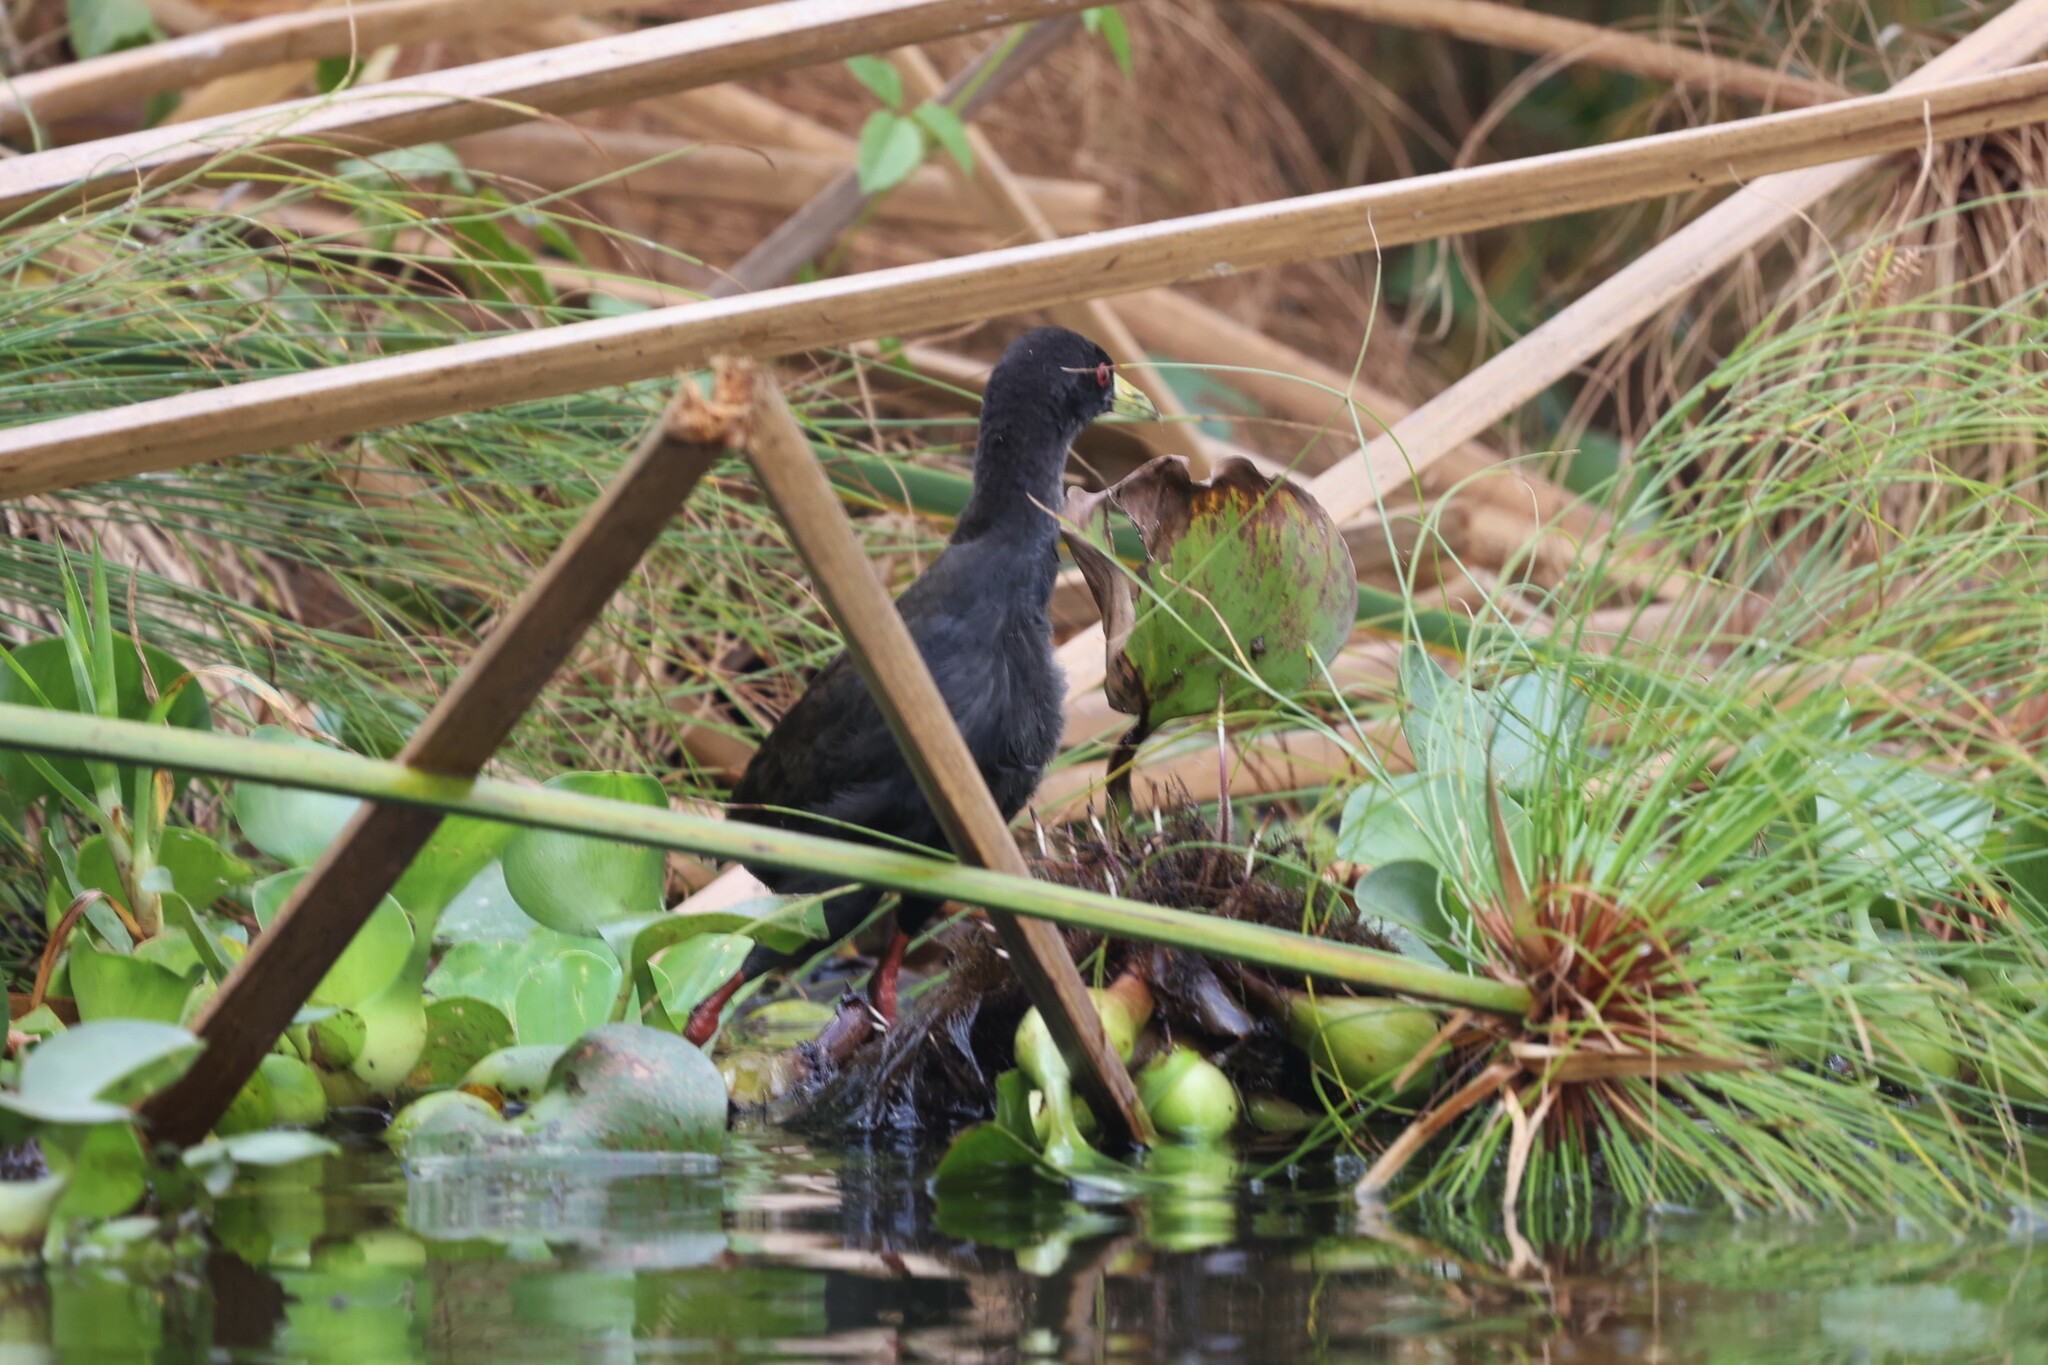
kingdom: Animalia
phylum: Chordata
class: Aves
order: Gruiformes
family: Rallidae
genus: Amaurornis
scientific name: Amaurornis flavirostra
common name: Black crake
